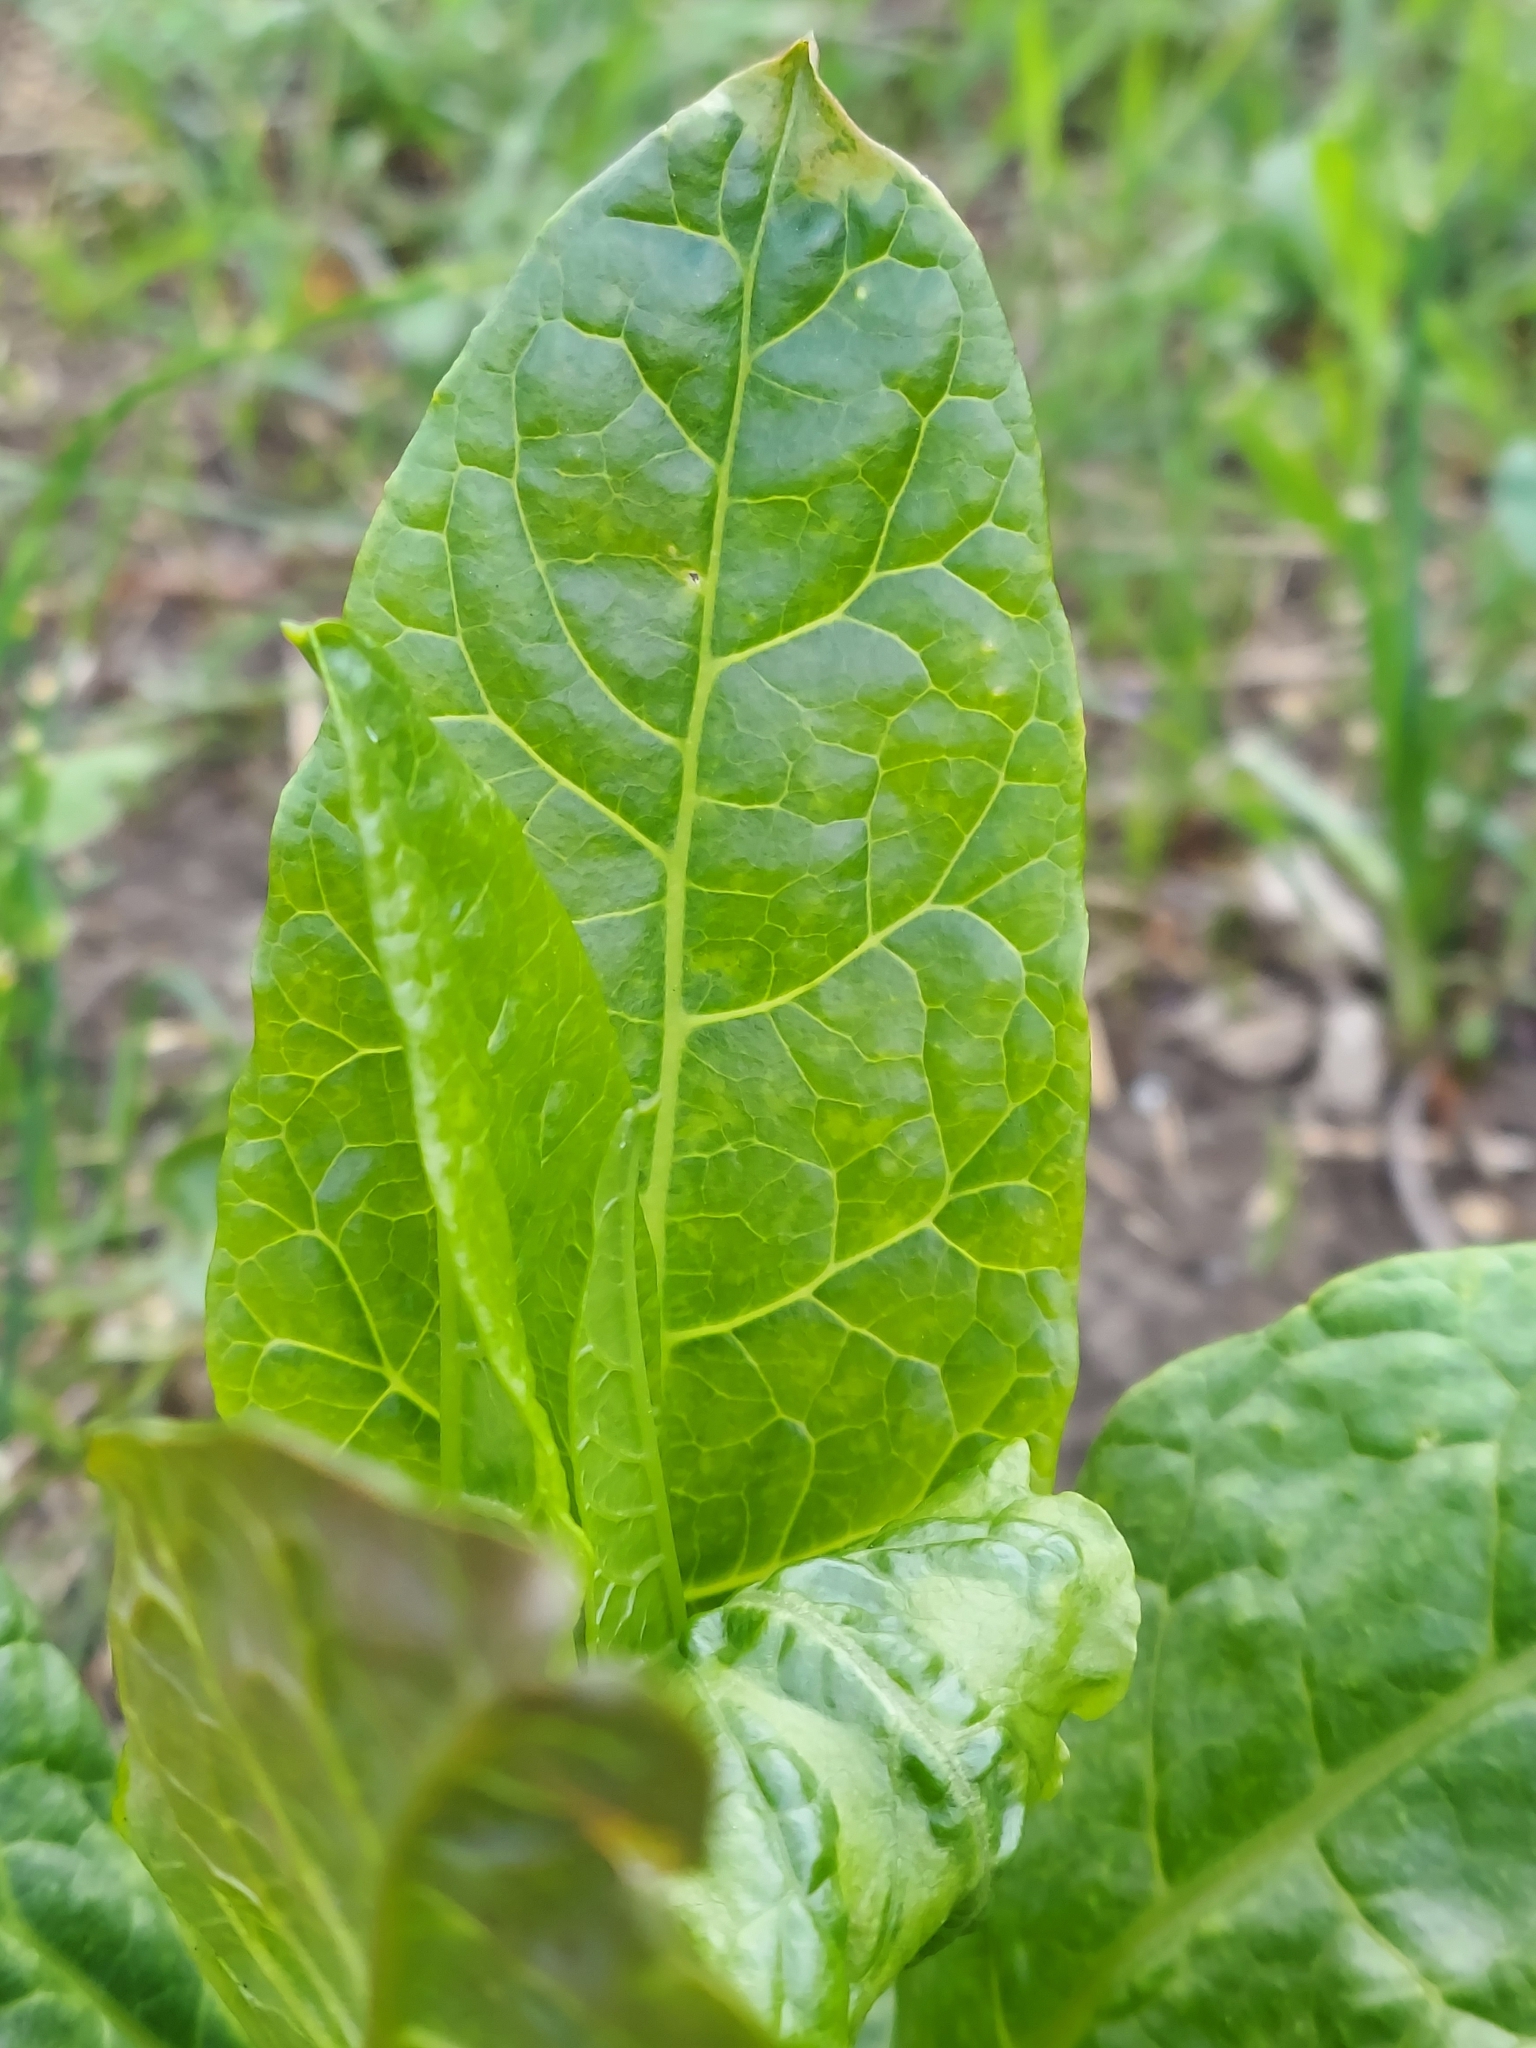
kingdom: Plantae
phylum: Tracheophyta
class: Magnoliopsida
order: Caryophyllales
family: Phytolaccaceae
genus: Phytolacca
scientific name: Phytolacca americana
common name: American pokeweed
